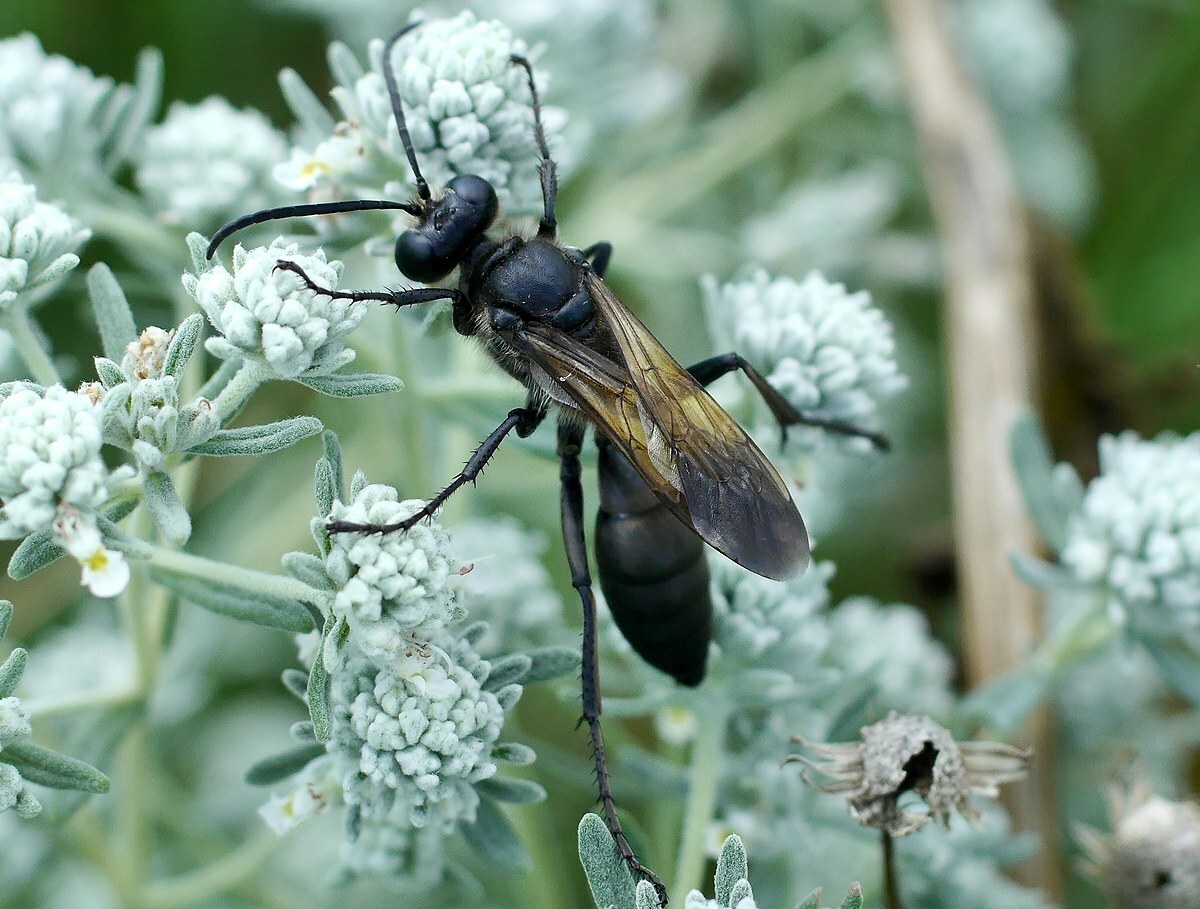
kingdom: Animalia
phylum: Arthropoda
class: Insecta
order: Hymenoptera
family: Sphecidae
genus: Sphex
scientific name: Sphex leuconotus
